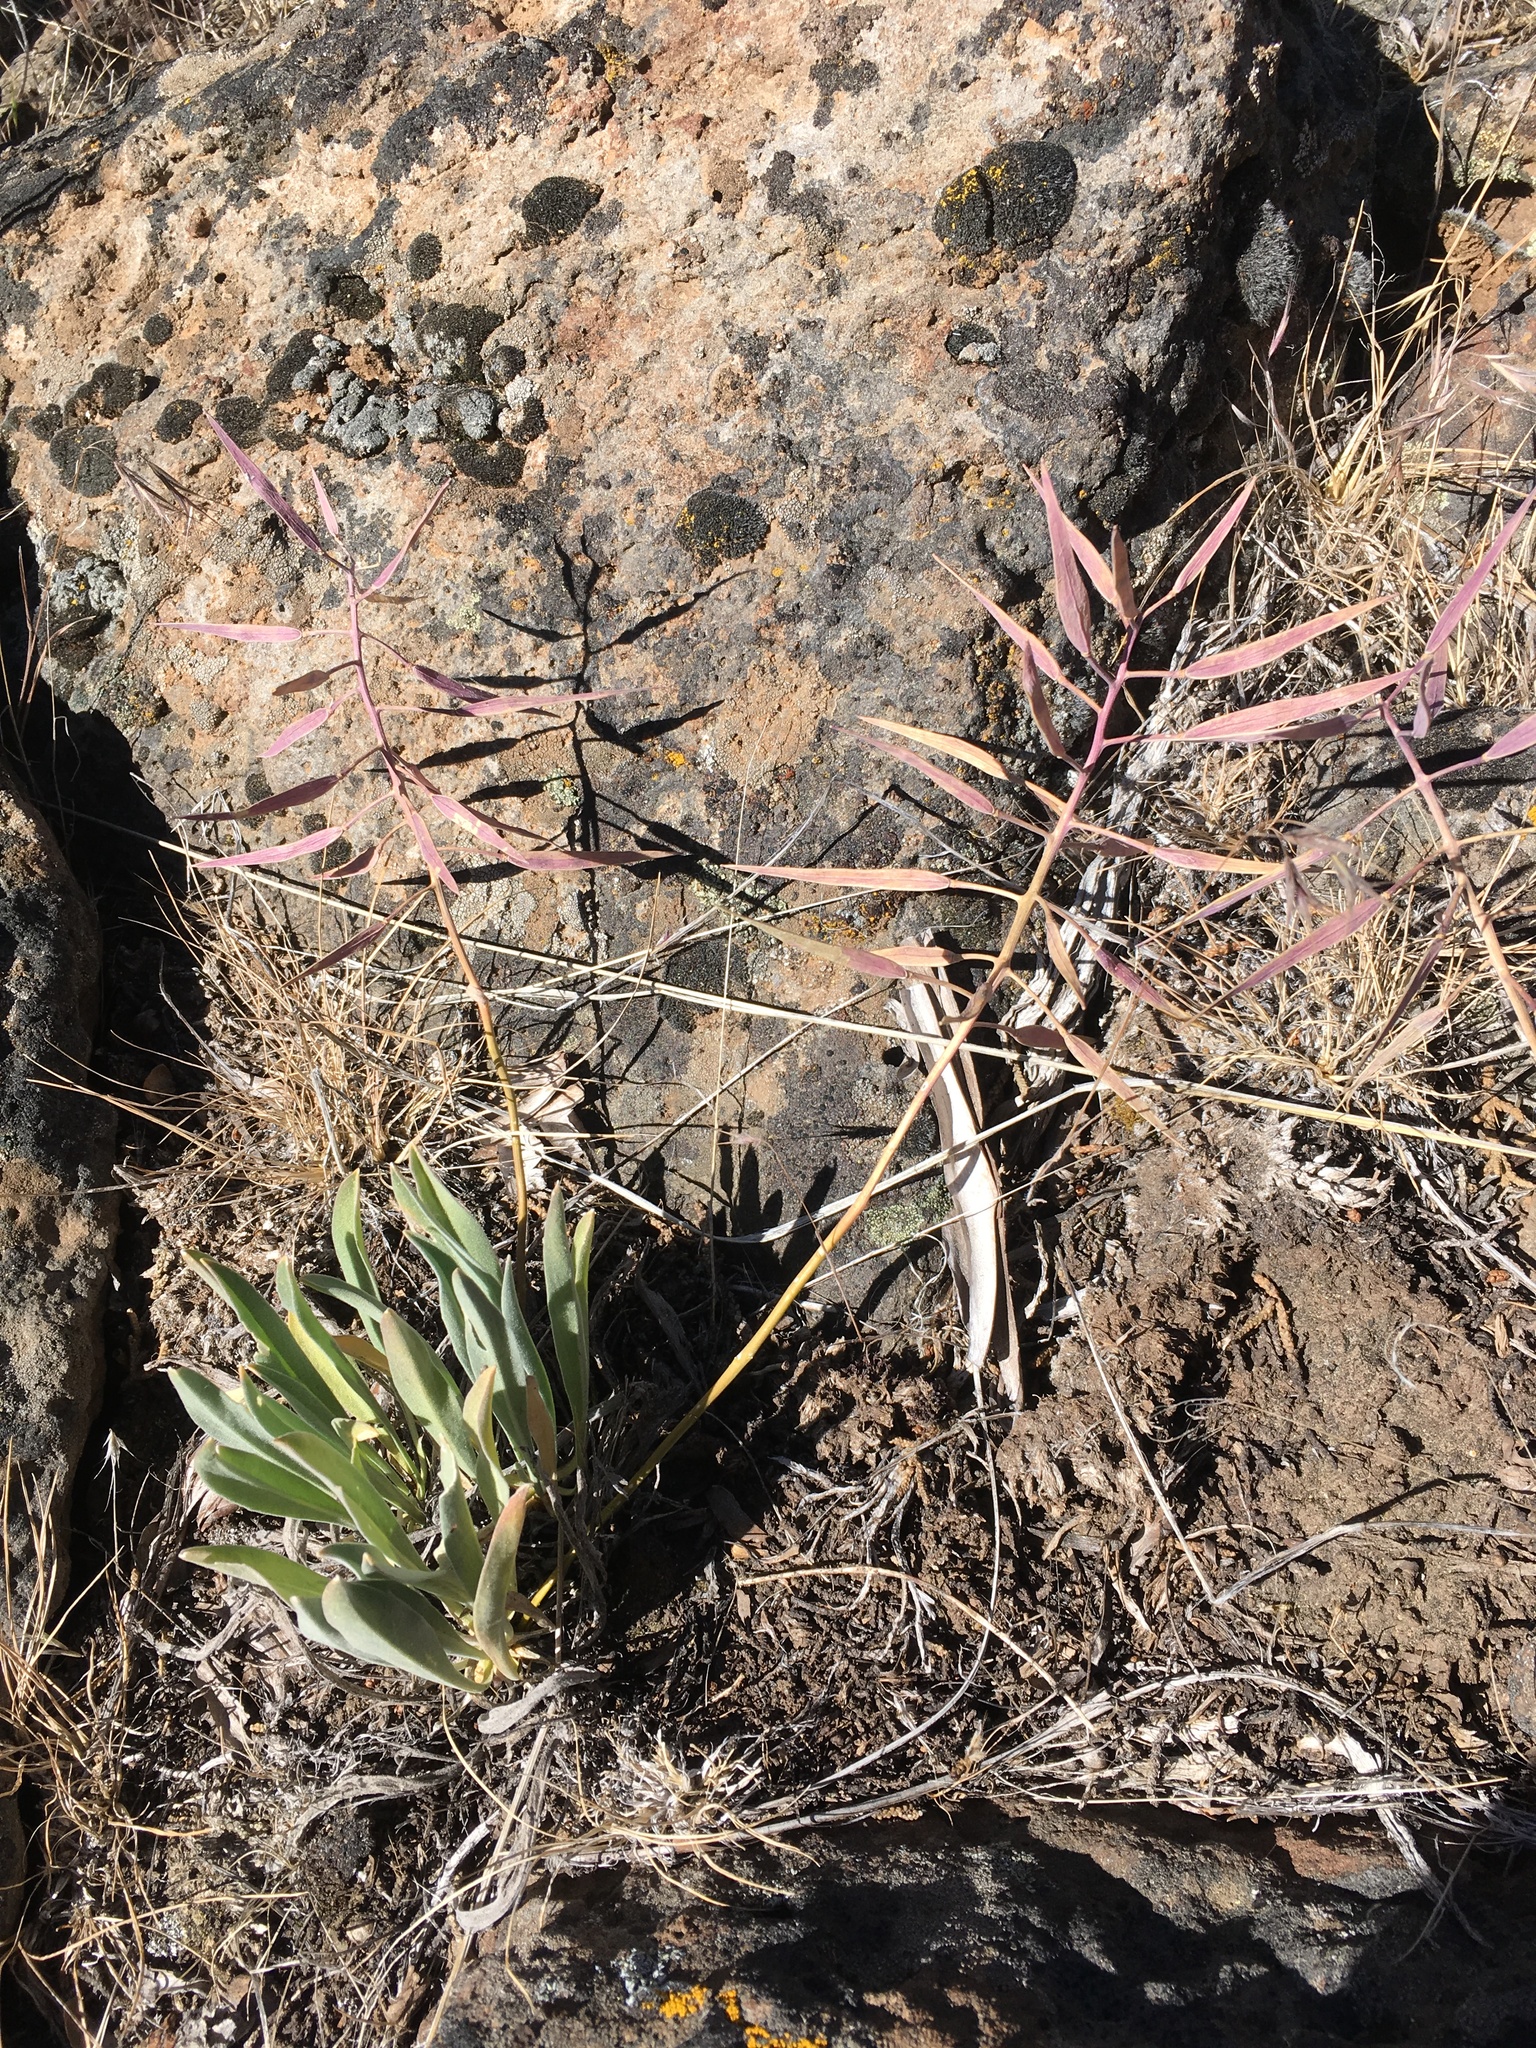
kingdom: Plantae
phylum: Tracheophyta
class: Magnoliopsida
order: Brassicales
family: Brassicaceae
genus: Phoenicaulis
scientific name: Phoenicaulis cheiranthoides
